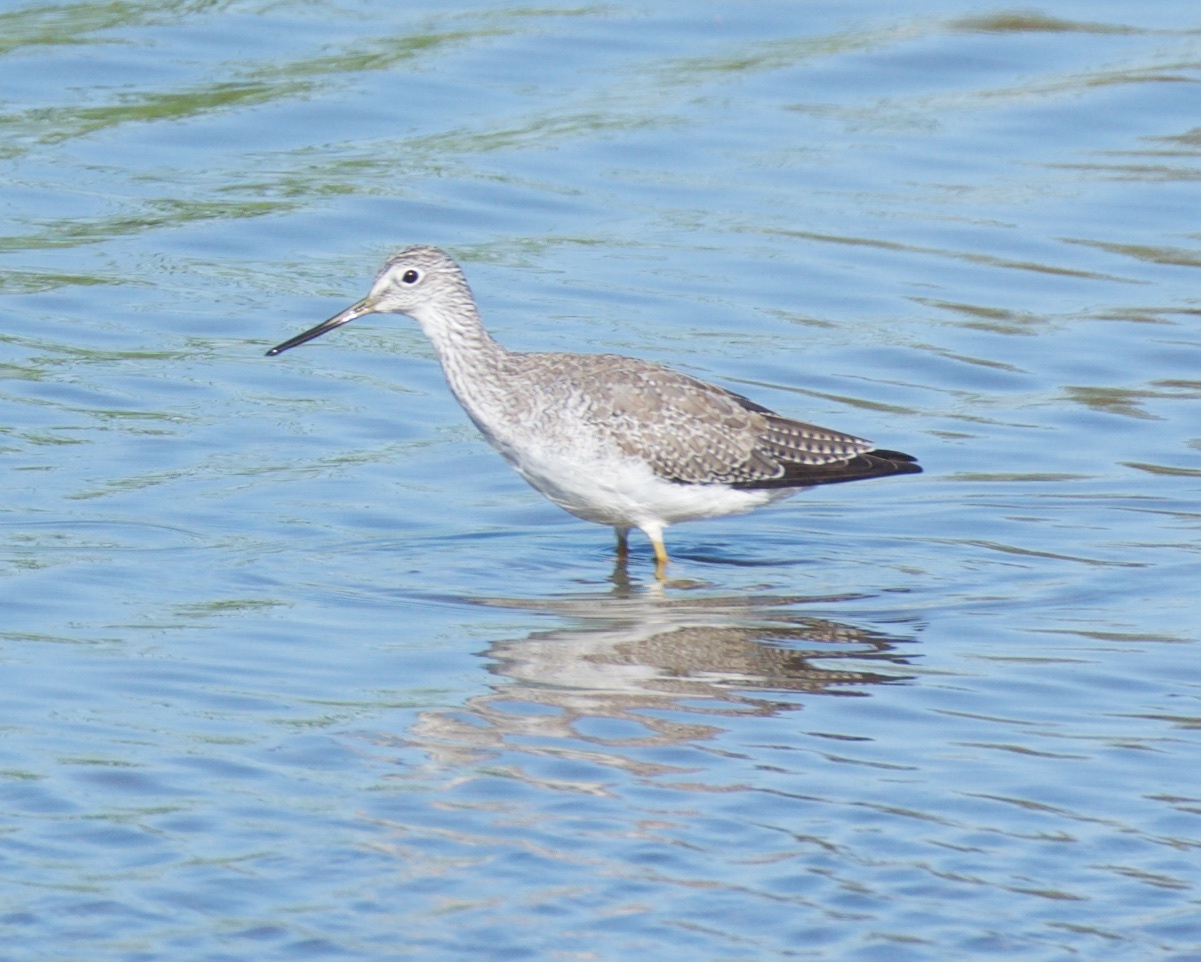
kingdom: Animalia
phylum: Chordata
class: Aves
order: Charadriiformes
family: Scolopacidae
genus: Tringa
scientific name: Tringa melanoleuca
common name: Greater yellowlegs
